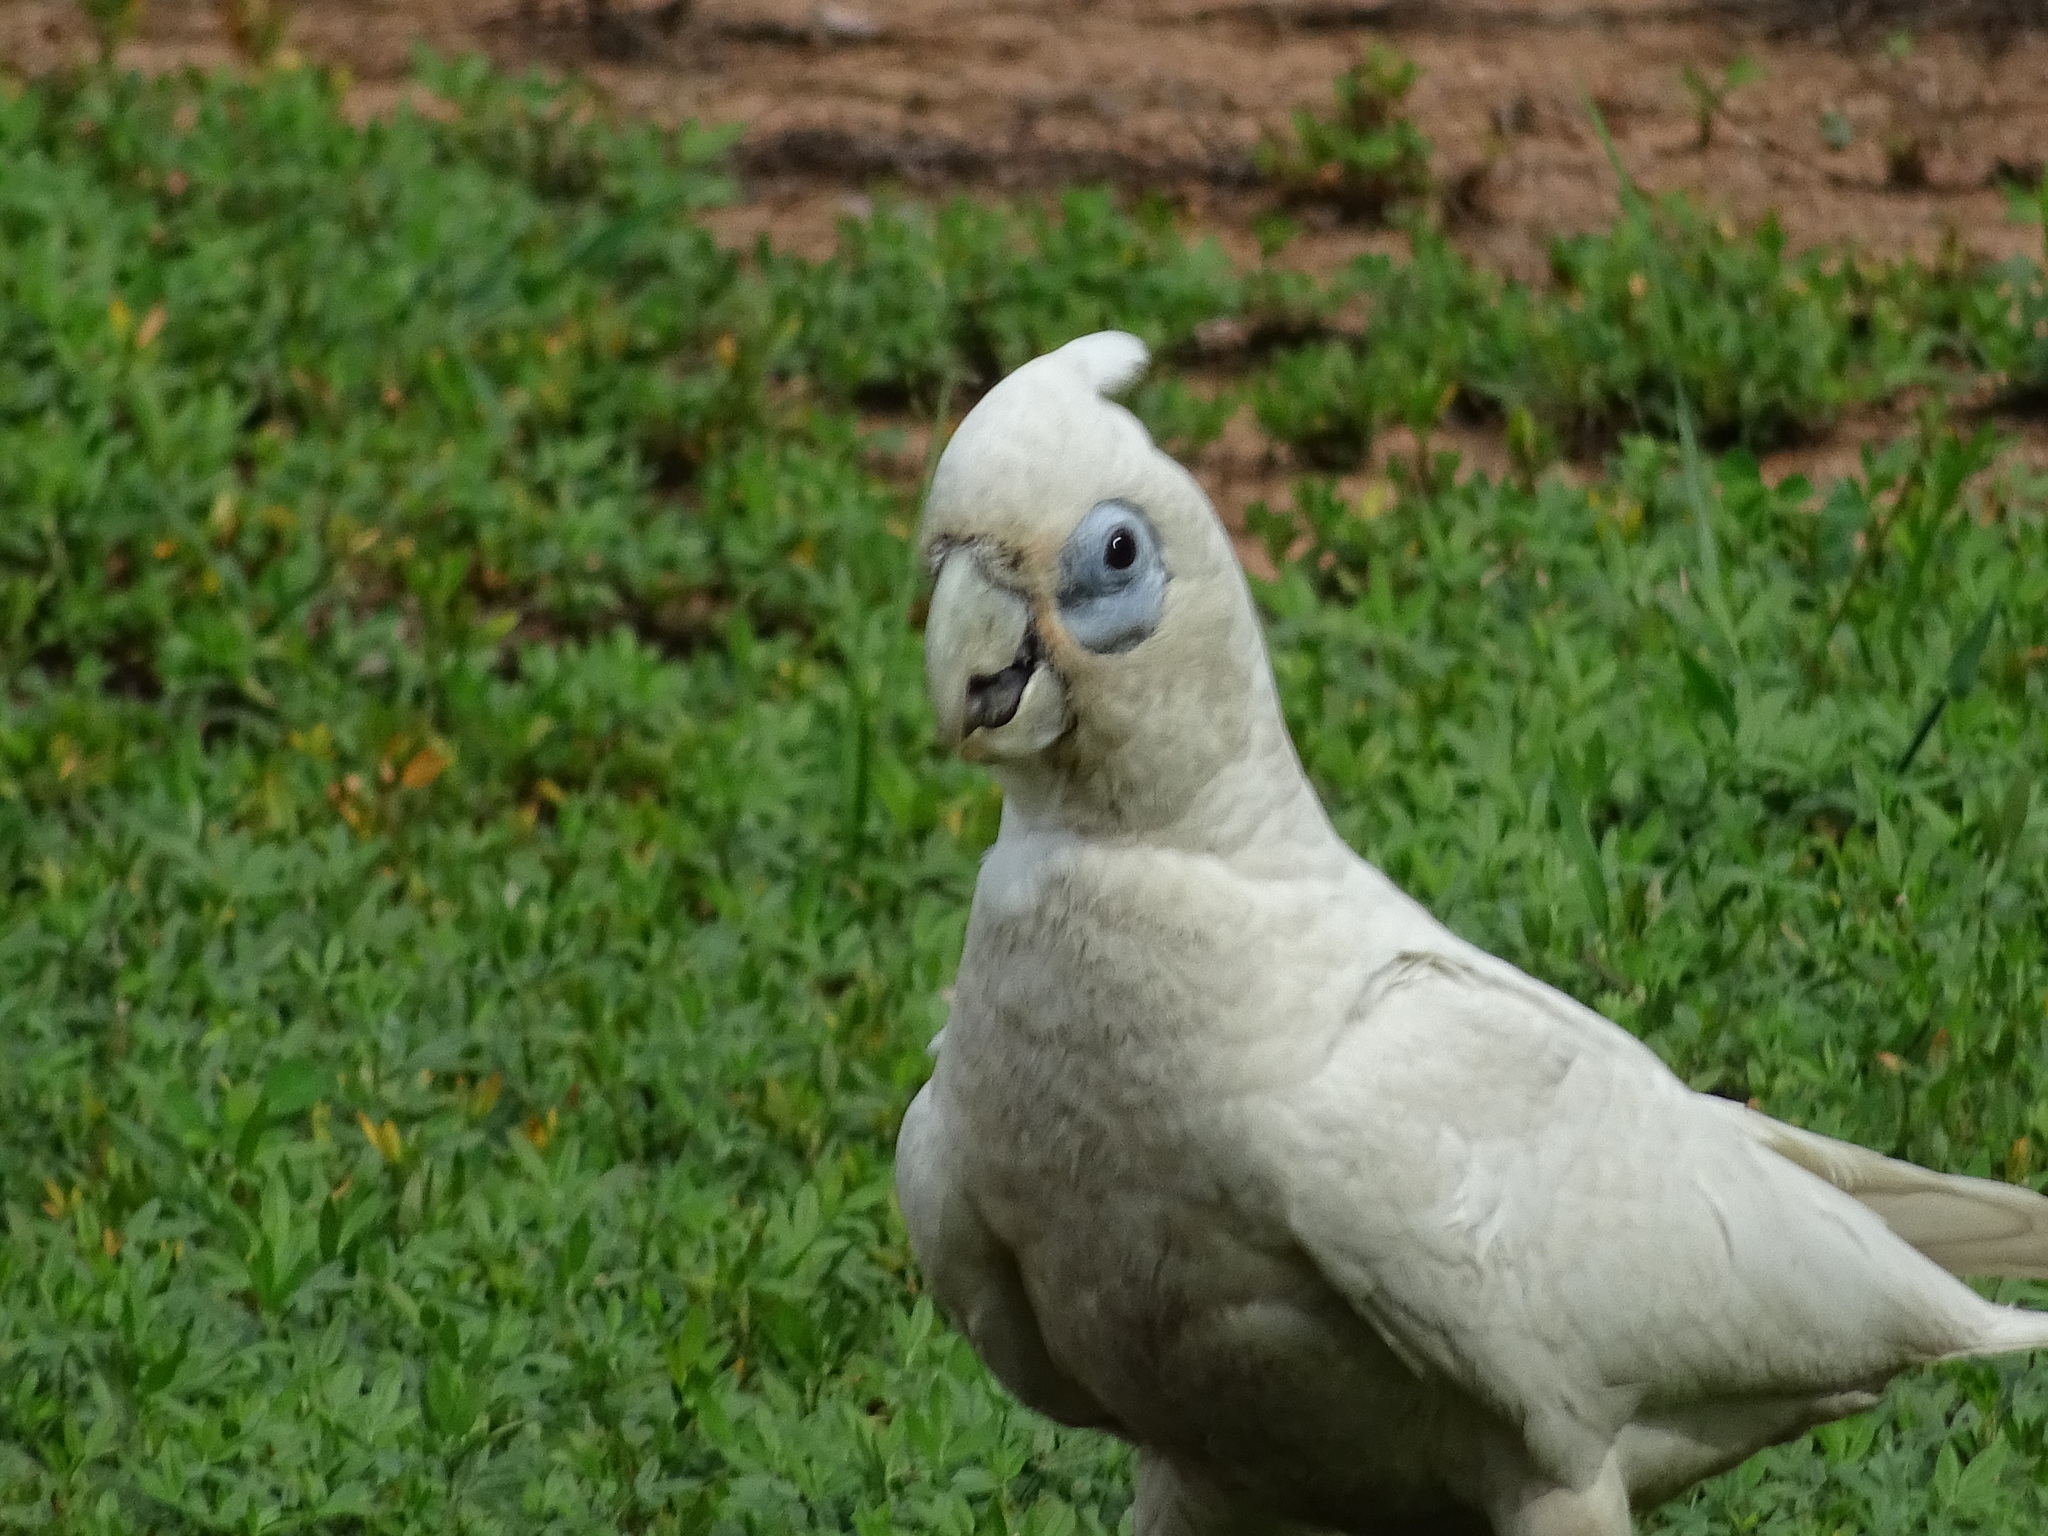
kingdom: Animalia
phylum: Chordata
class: Aves
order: Psittaciformes
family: Psittacidae
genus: Cacatua
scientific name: Cacatua sanguinea
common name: Little corella
